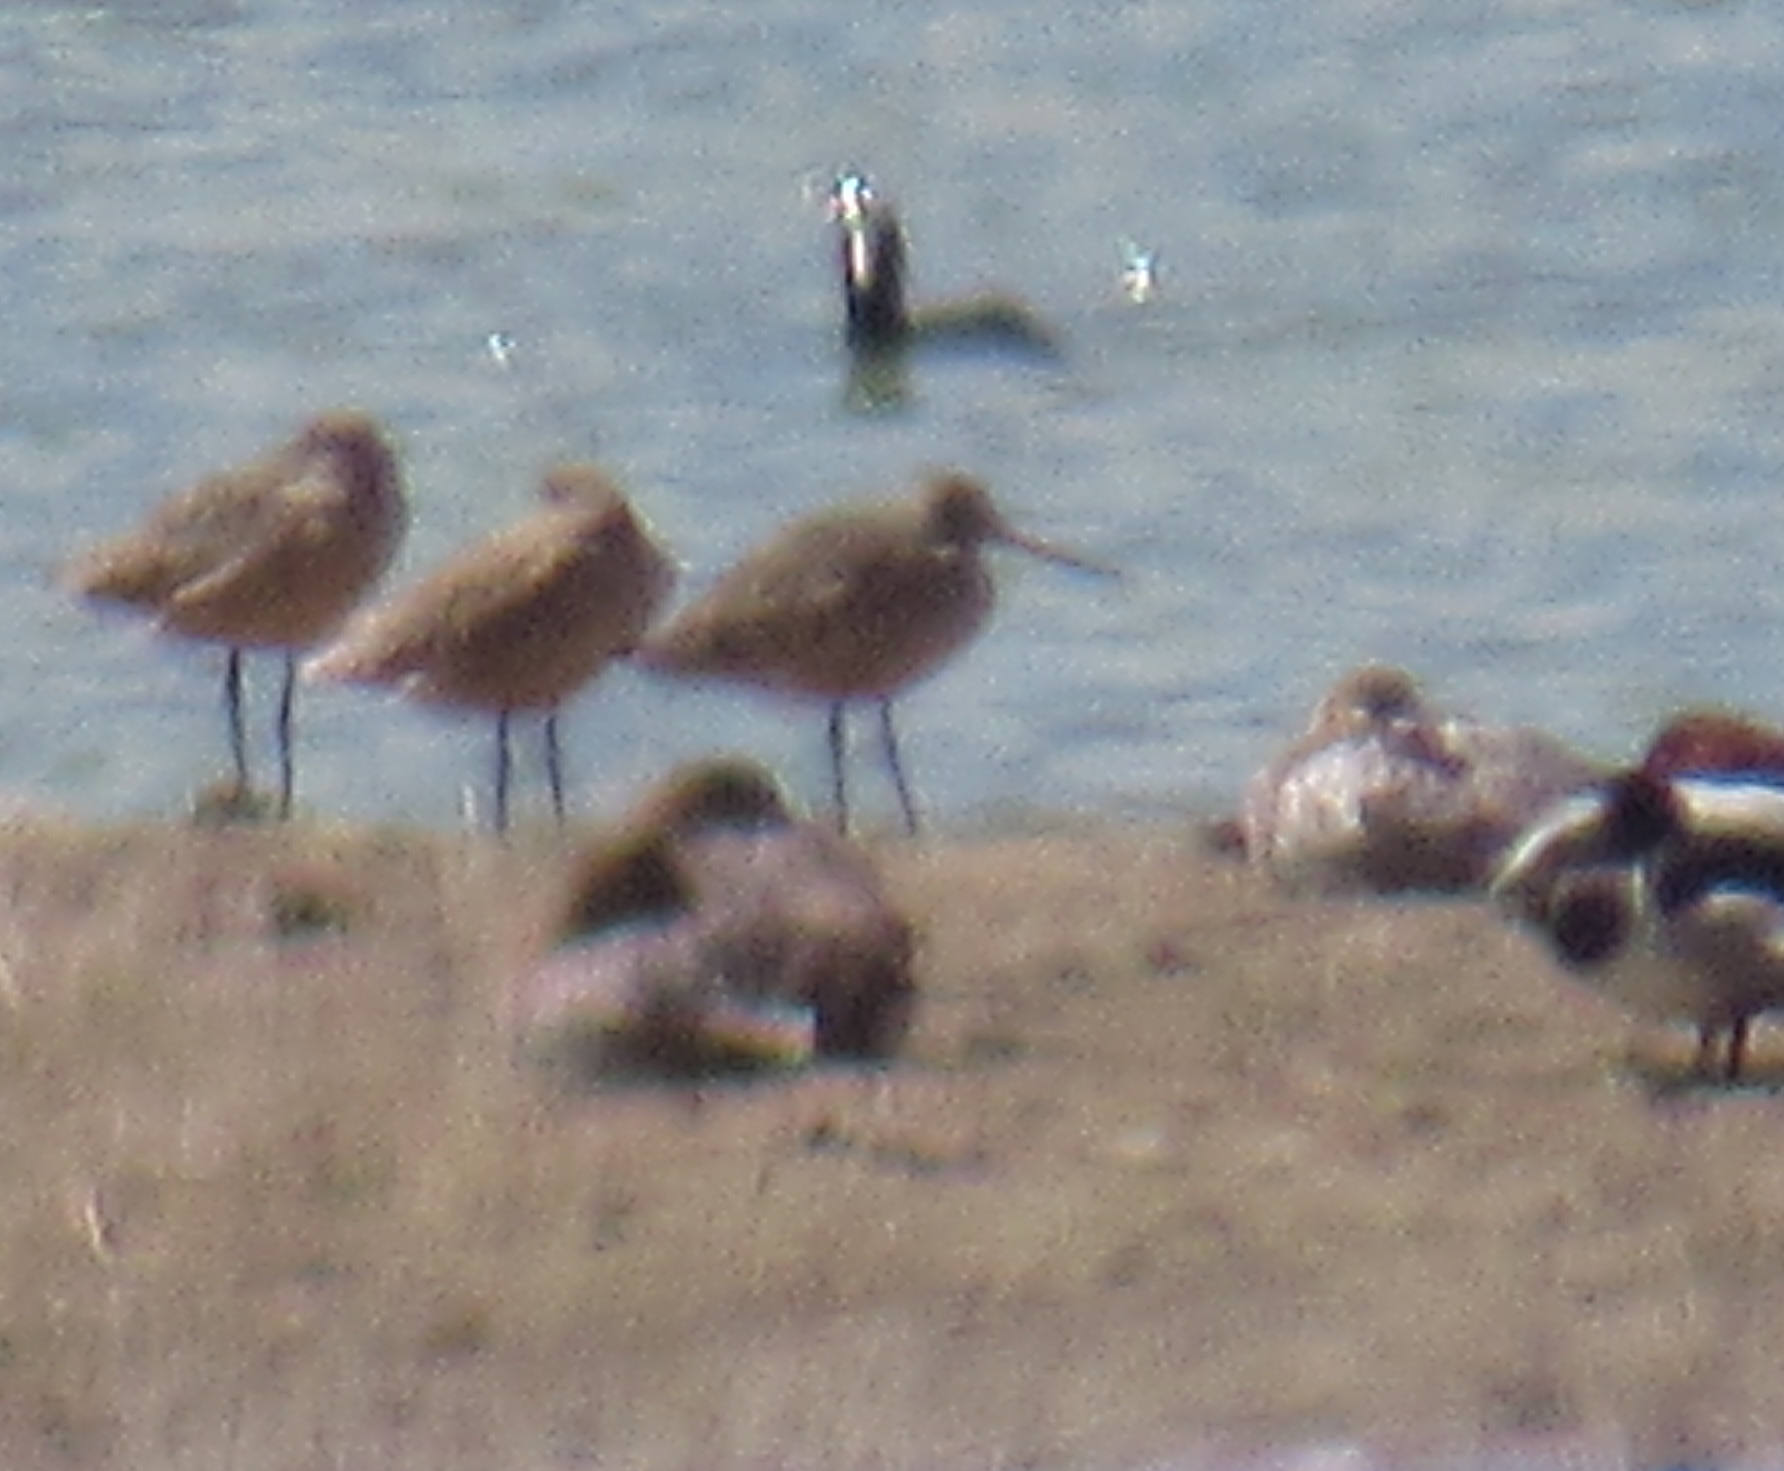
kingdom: Animalia
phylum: Chordata
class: Aves
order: Charadriiformes
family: Scolopacidae
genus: Limosa
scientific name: Limosa fedoa
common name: Marbled godwit
